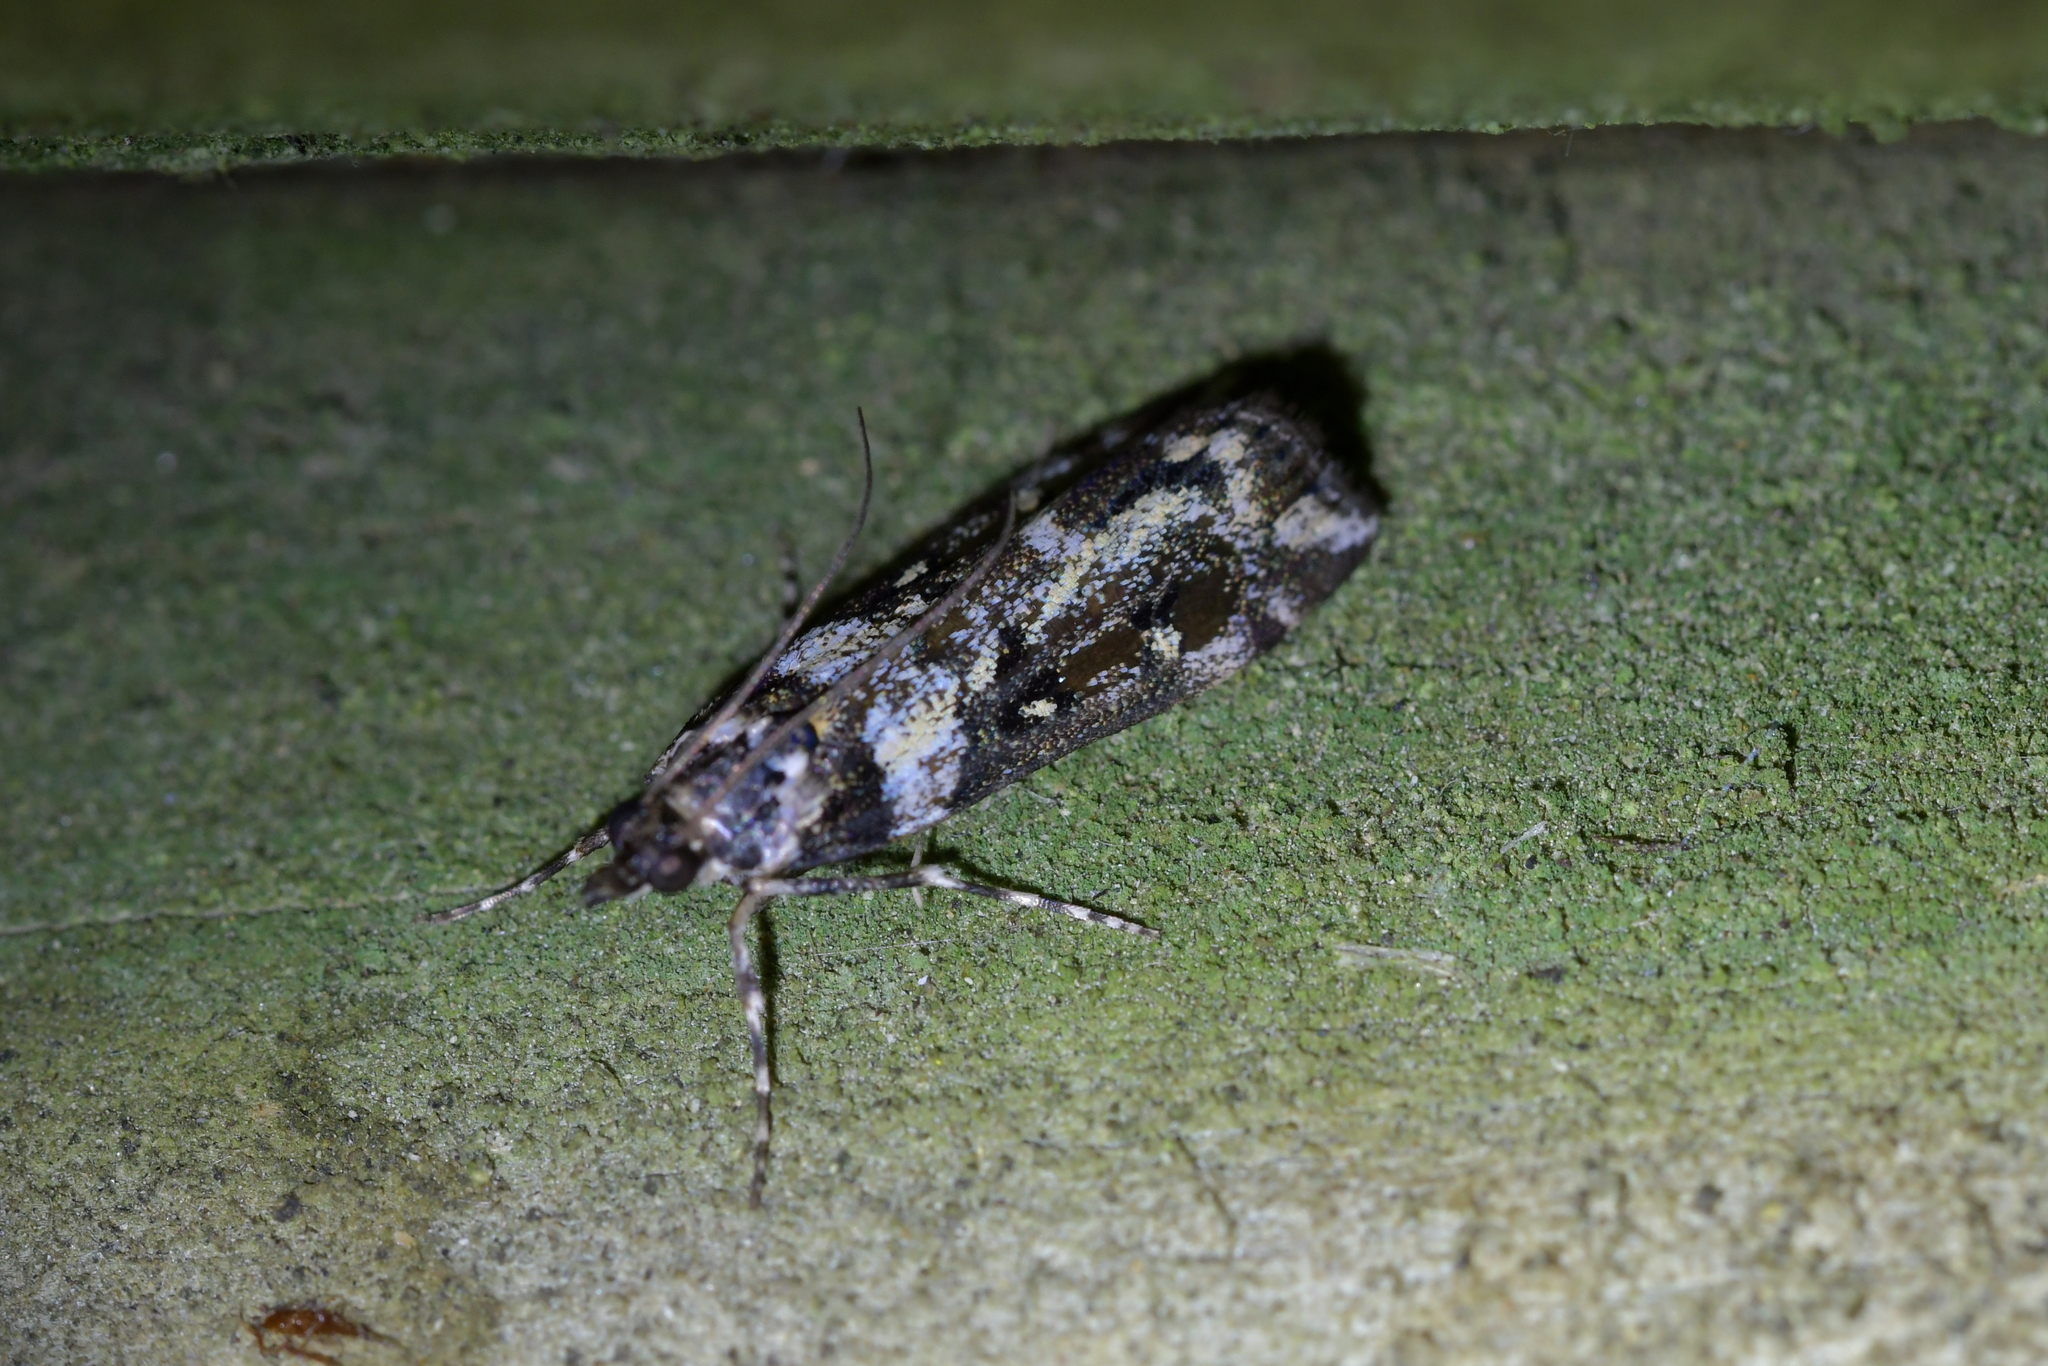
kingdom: Animalia
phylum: Arthropoda
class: Insecta
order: Lepidoptera
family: Crambidae
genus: Eudonia
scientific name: Eudonia diphtheralis
